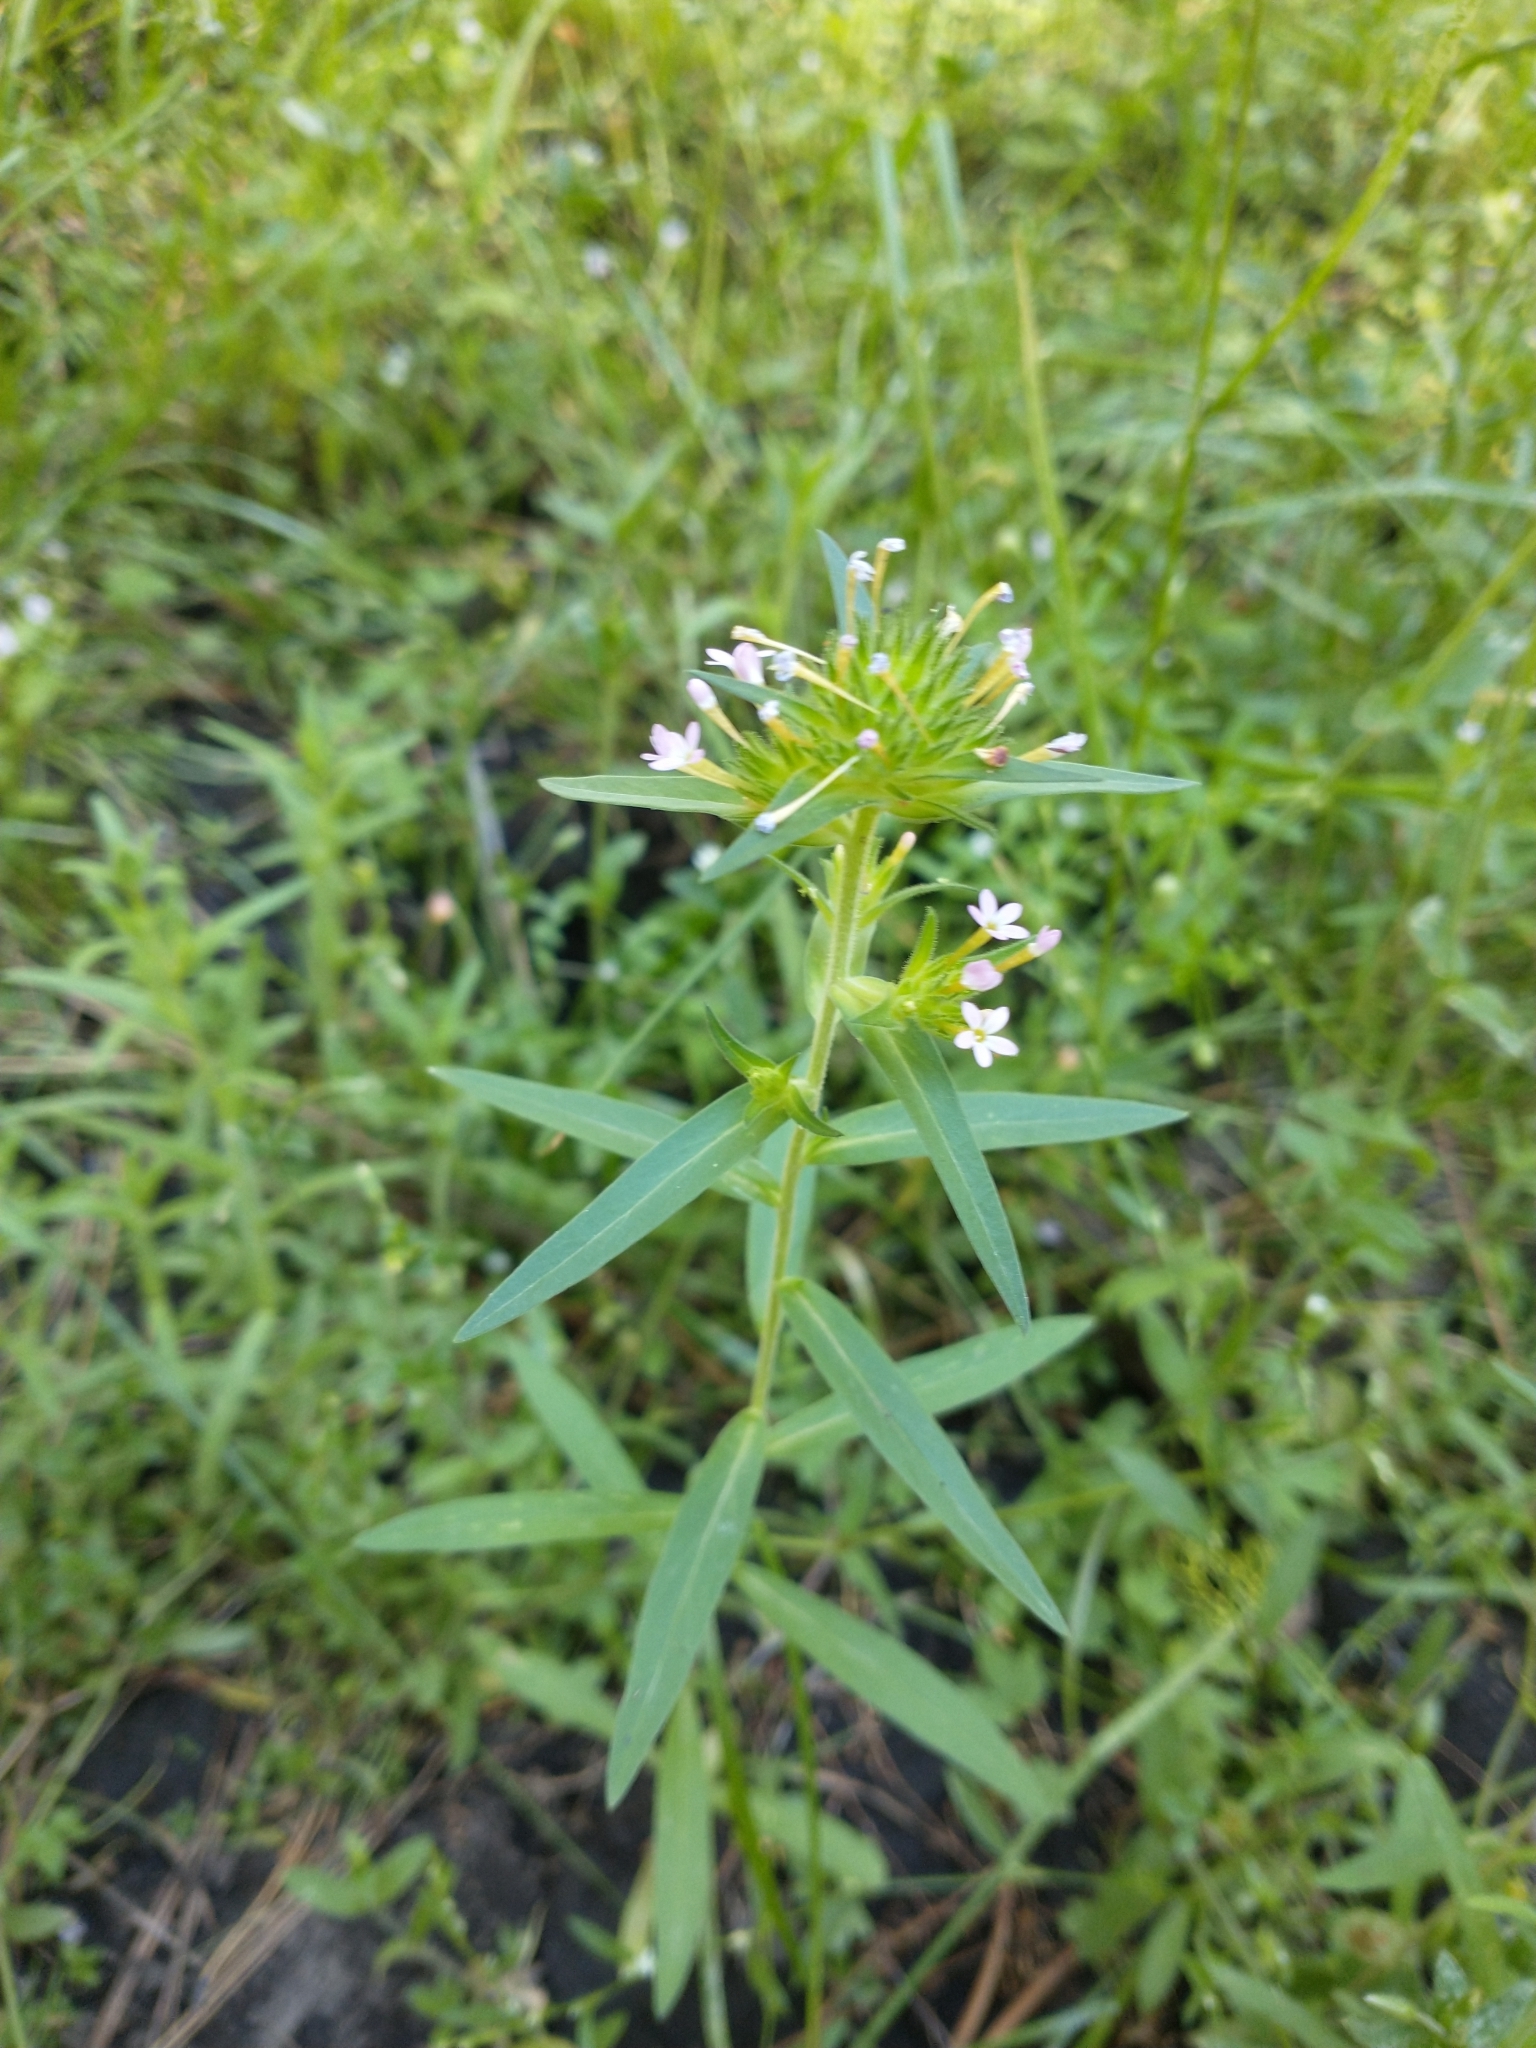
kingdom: Plantae
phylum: Tracheophyta
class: Magnoliopsida
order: Ericales
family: Polemoniaceae
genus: Collomia
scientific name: Collomia linearis
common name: Tiny trumpet
